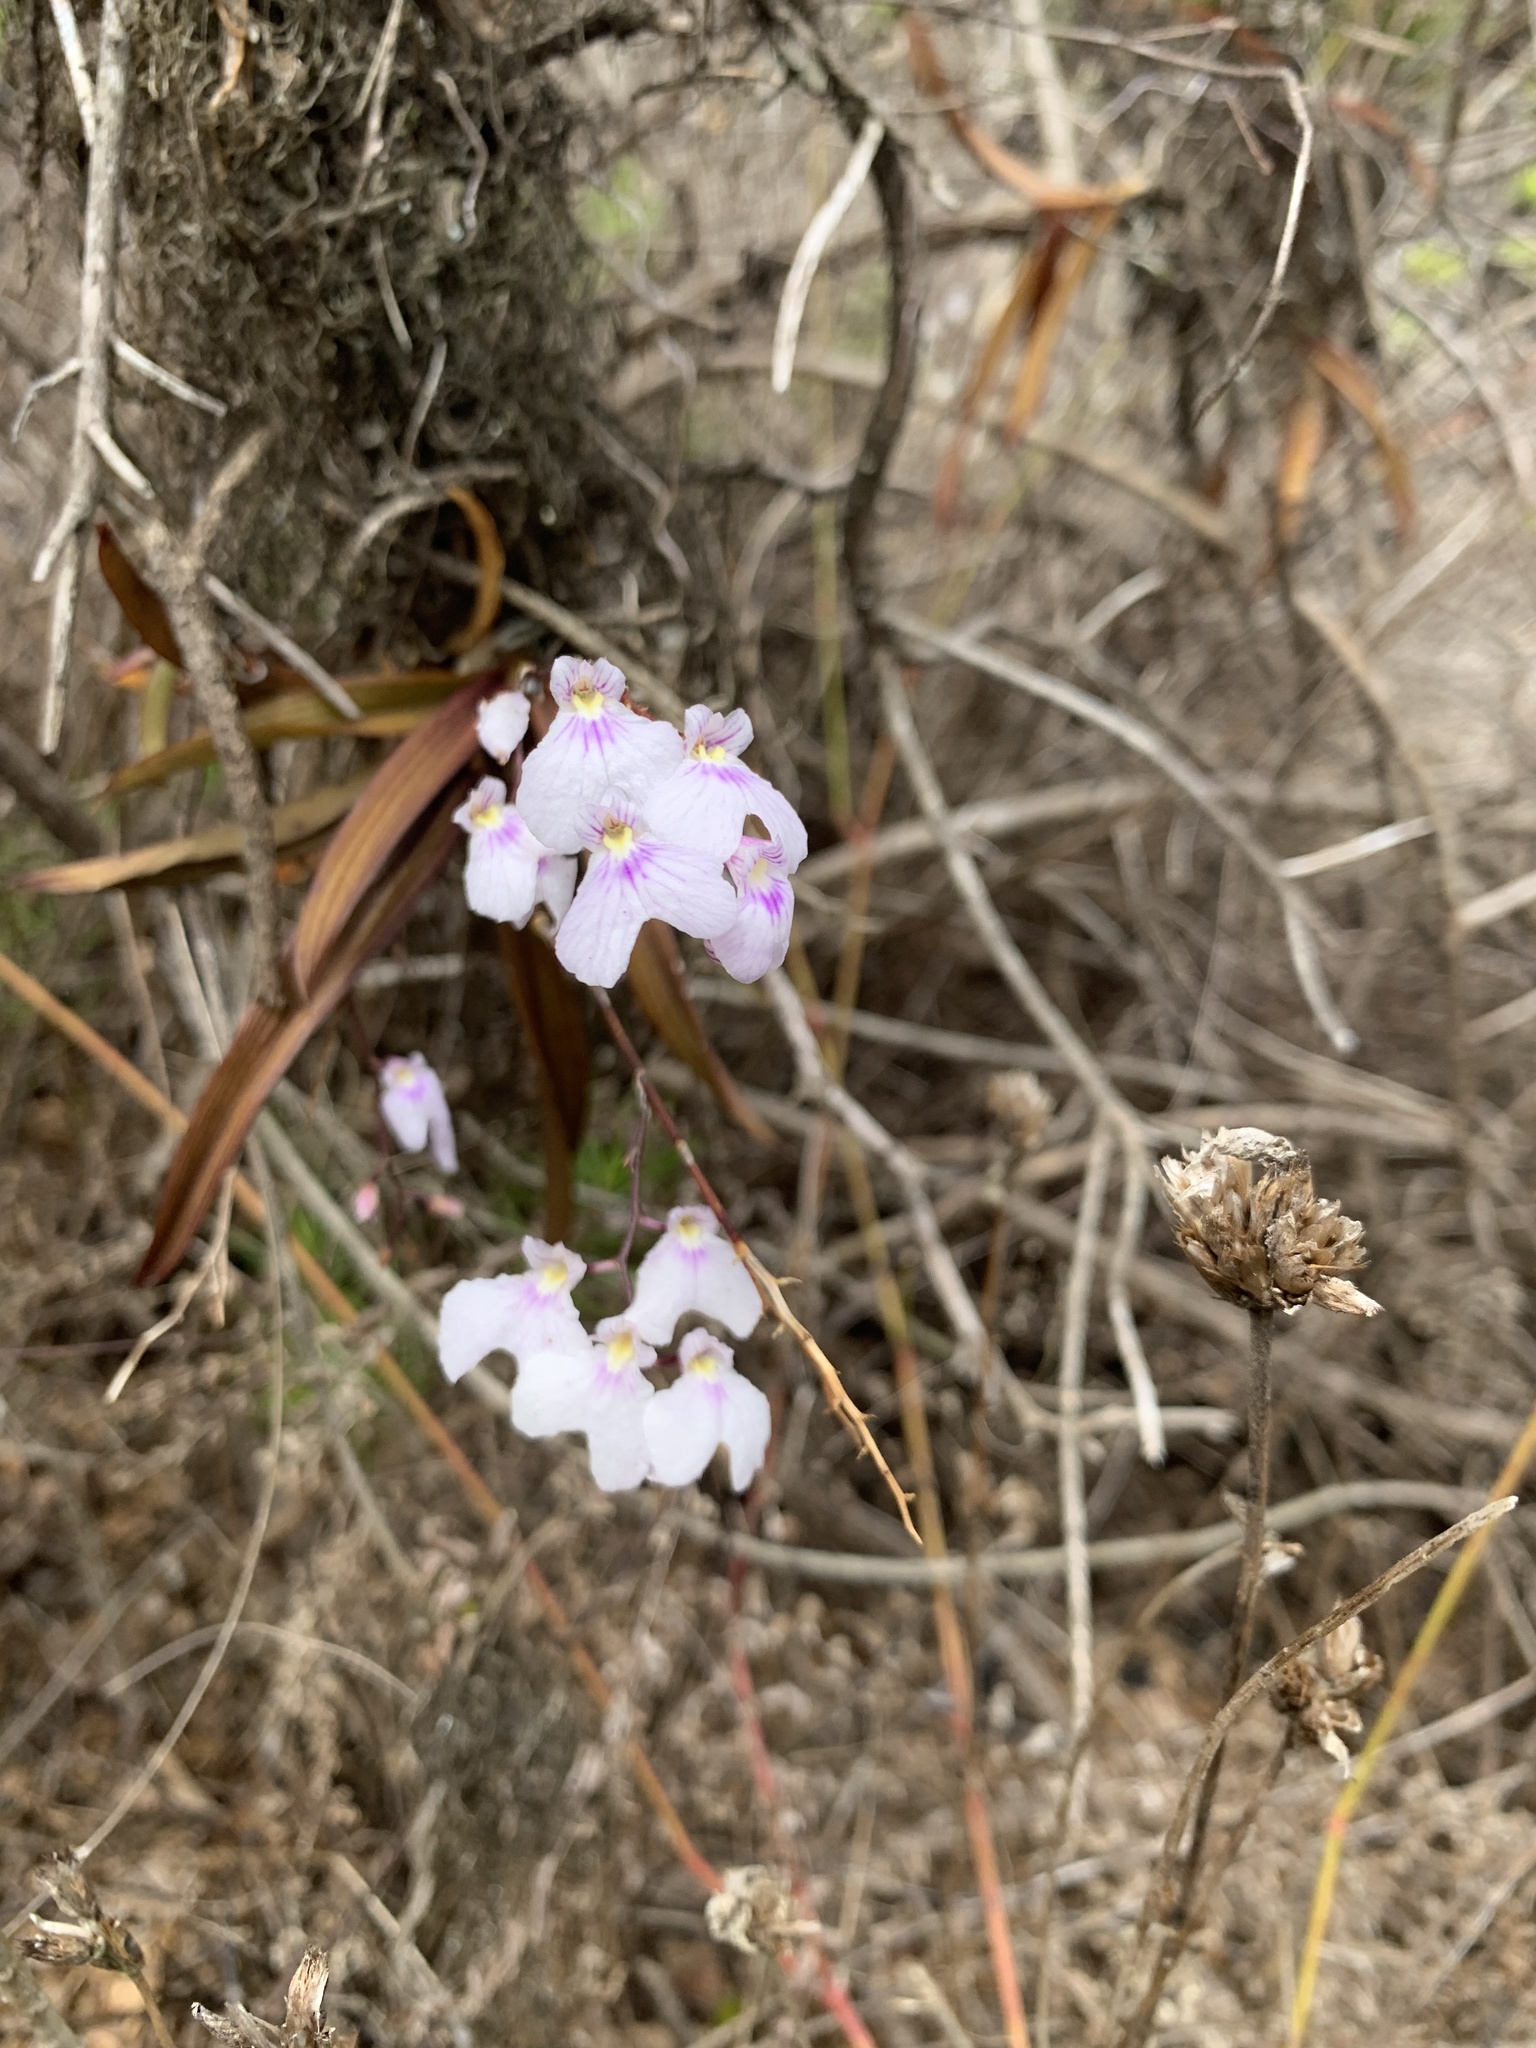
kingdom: Plantae
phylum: Tracheophyta
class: Liliopsida
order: Asparagales
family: Orchidaceae
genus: Ionopsis
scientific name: Ionopsis utricularioides
